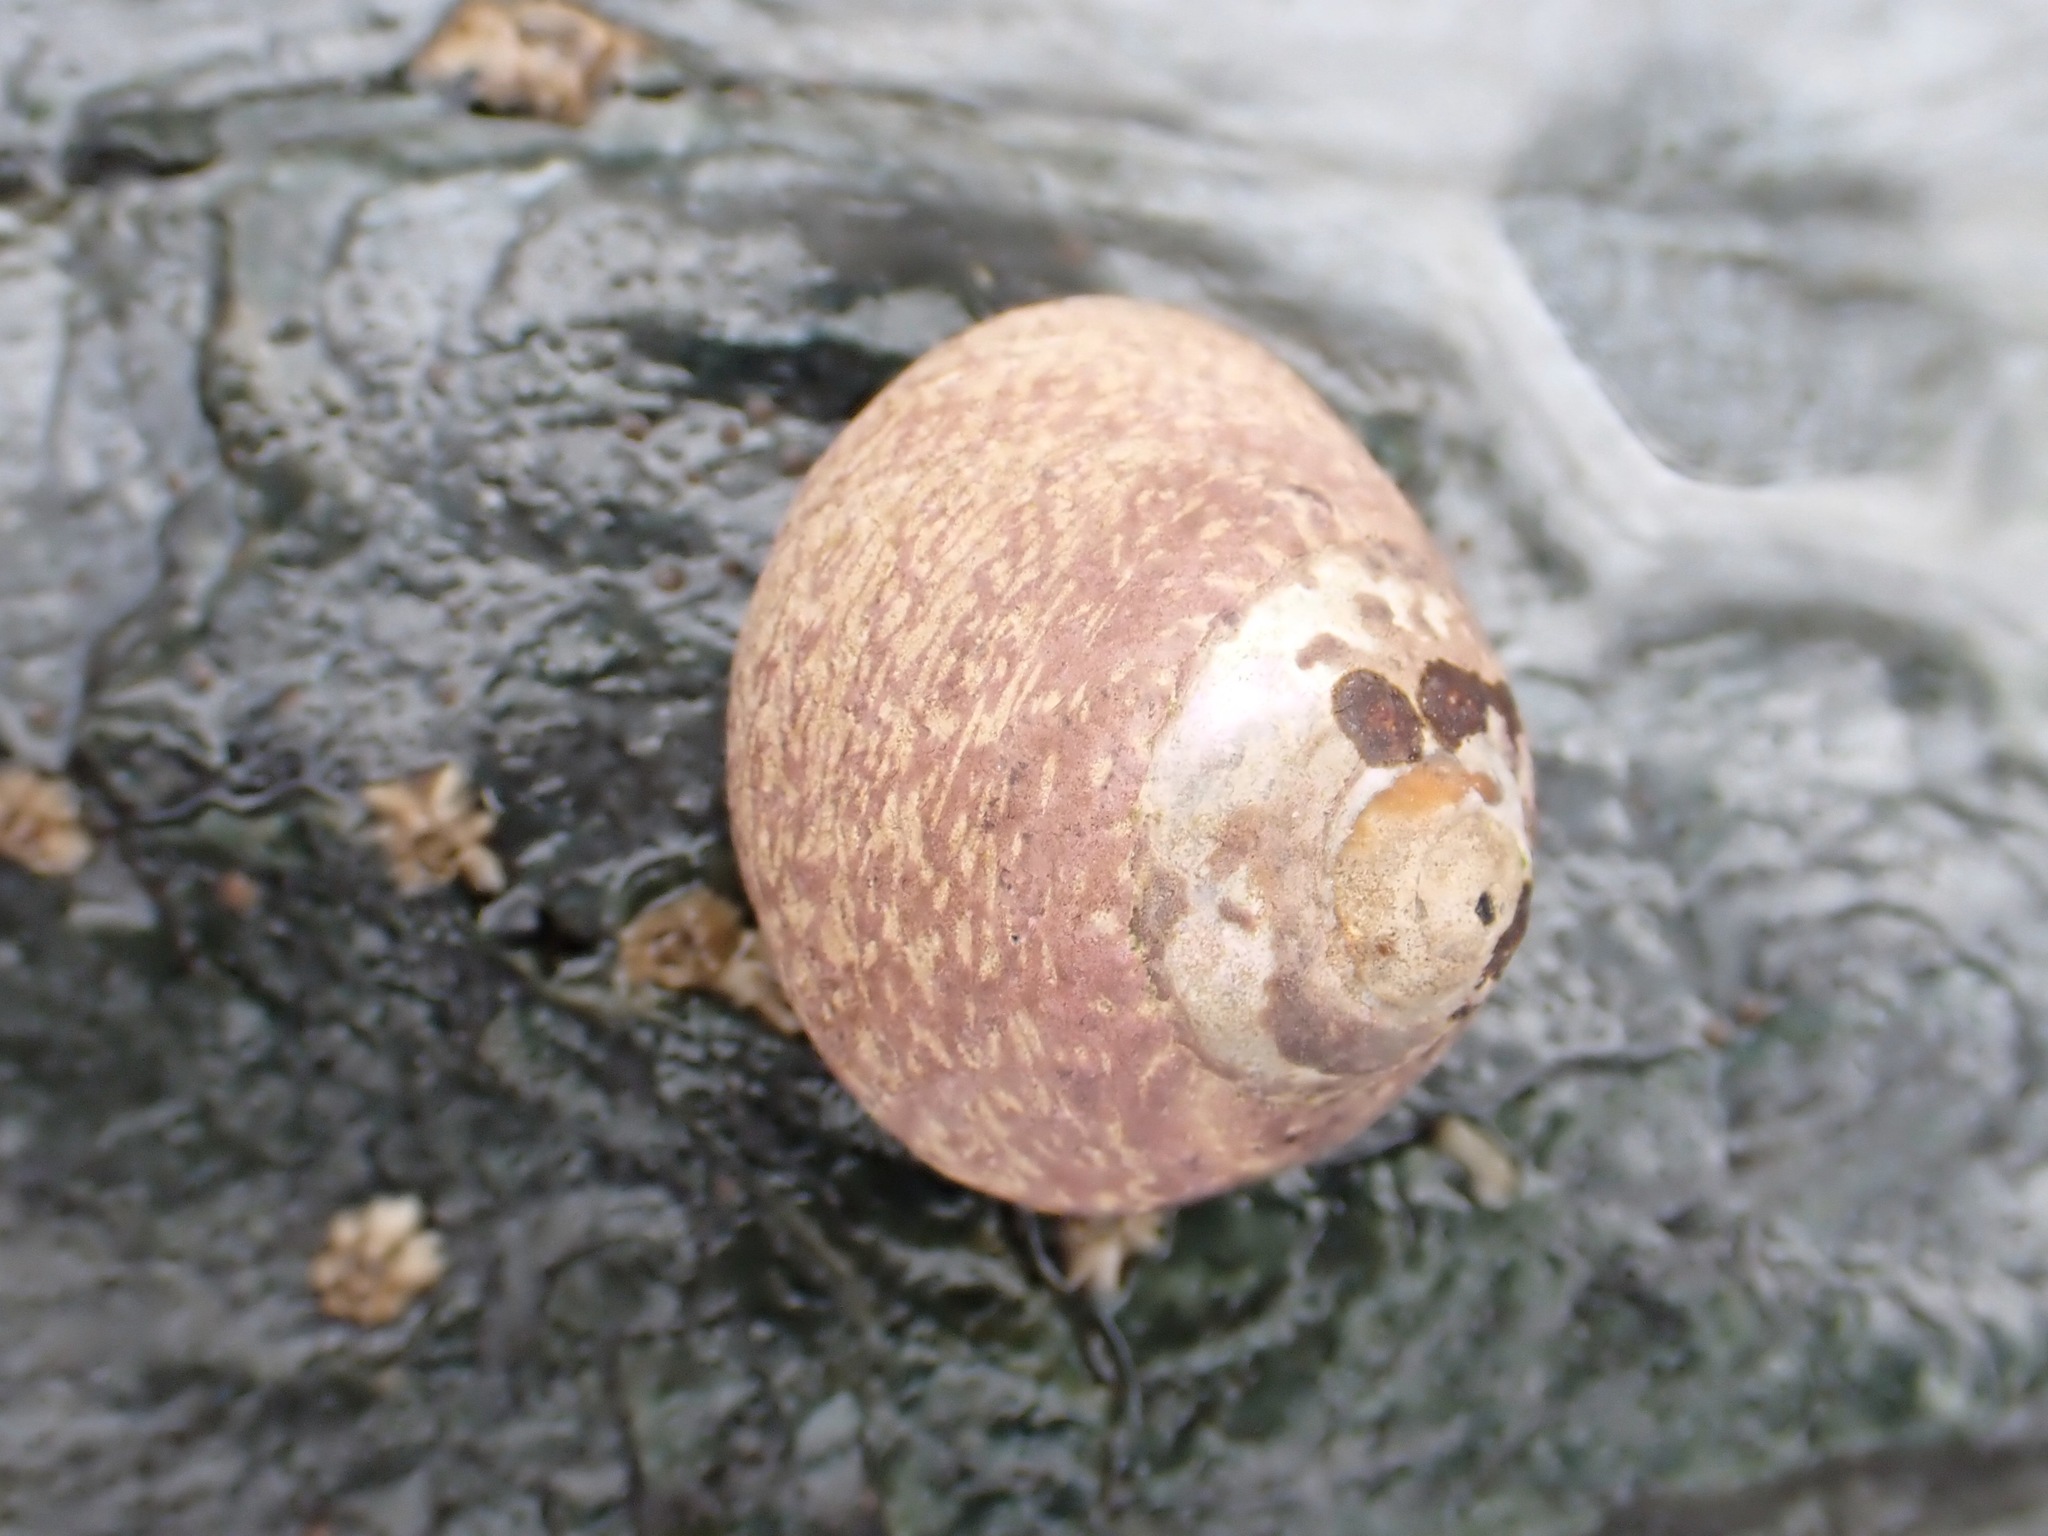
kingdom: Animalia
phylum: Mollusca
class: Gastropoda
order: Trochida
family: Trochidae
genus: Phorcus
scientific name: Phorcus lineatus
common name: Toothed top shell
